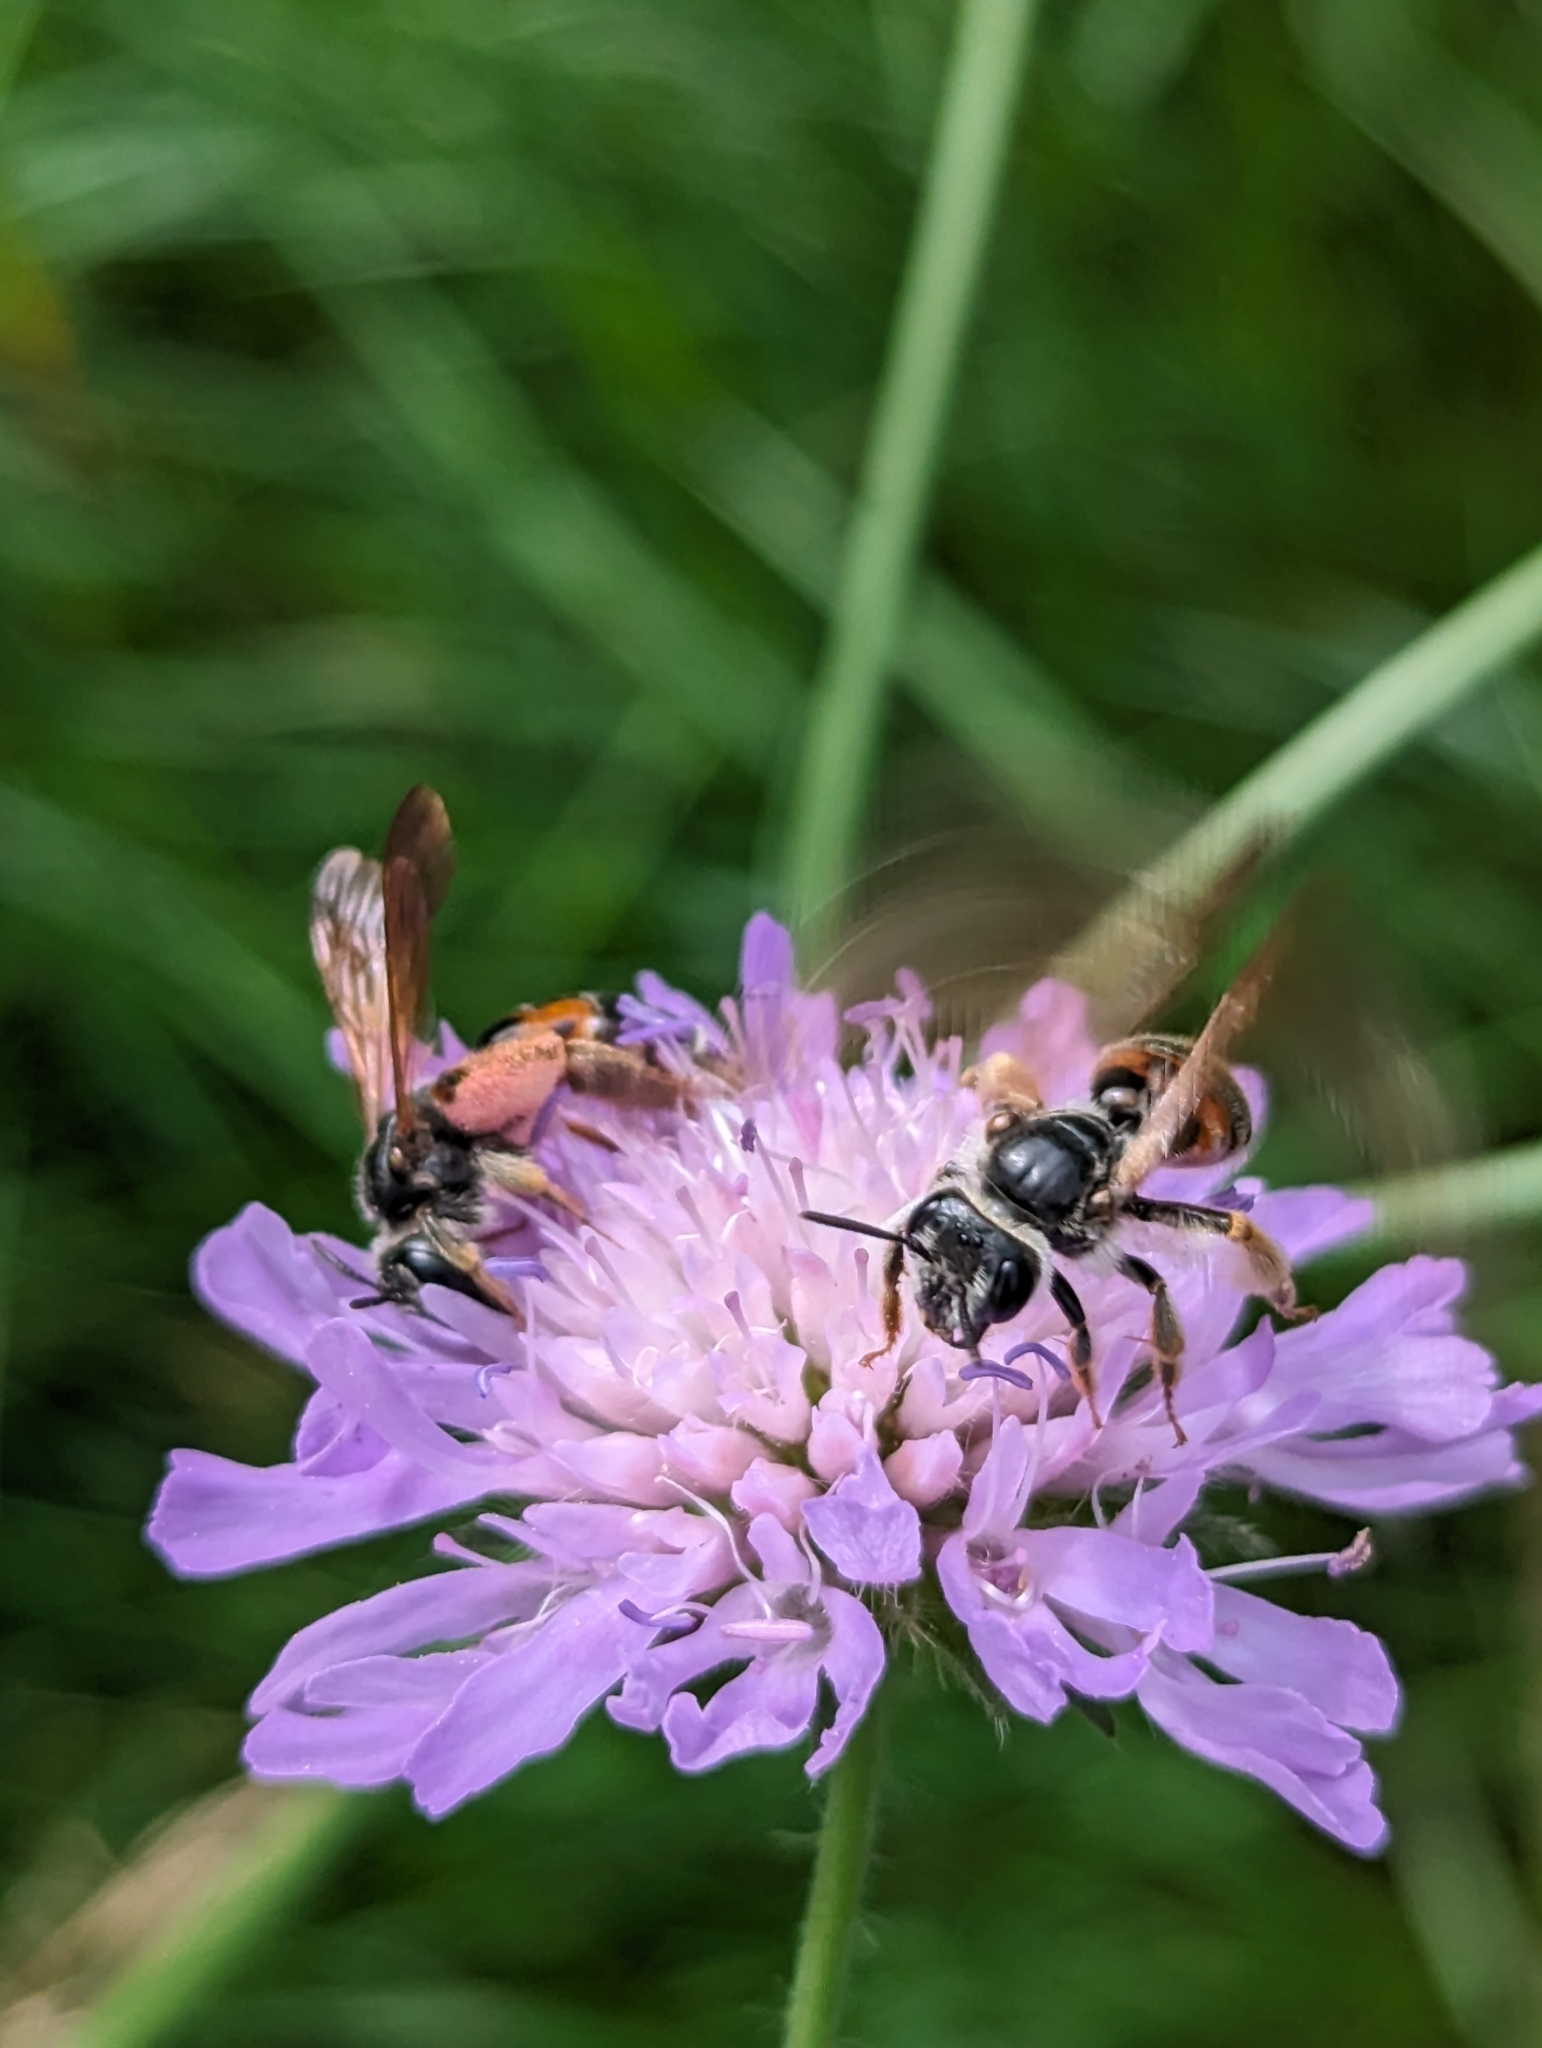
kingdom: Animalia
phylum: Arthropoda
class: Insecta
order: Hymenoptera
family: Andrenidae
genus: Andrena
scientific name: Andrena hattorfiana
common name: Large scabious mining bee
